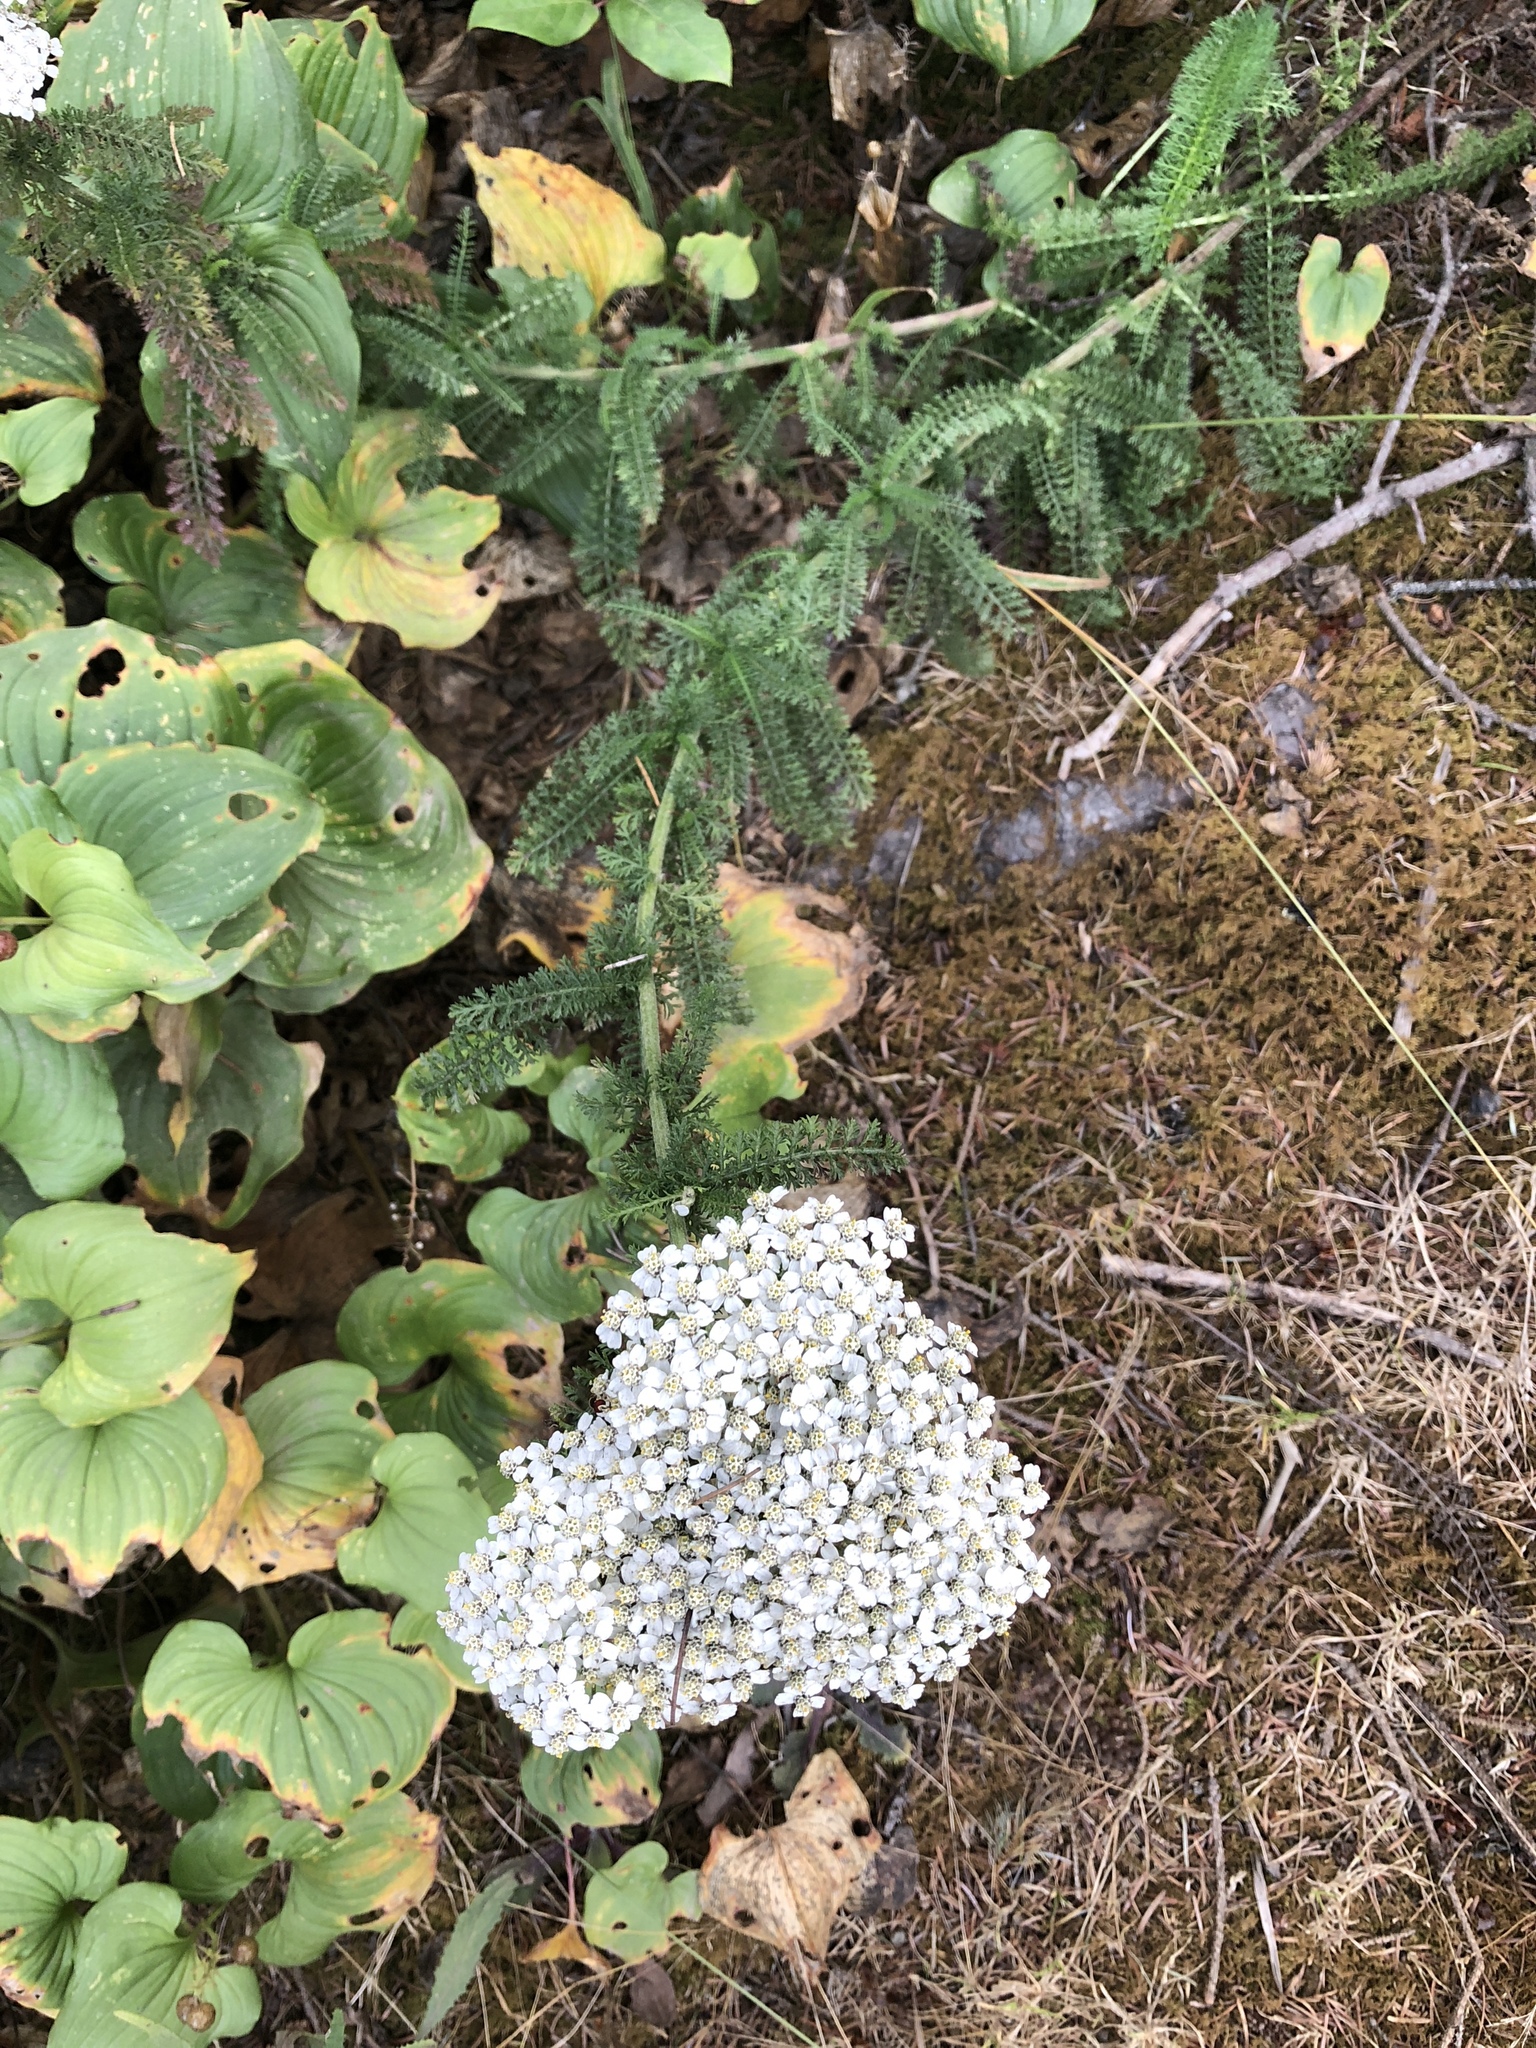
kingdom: Plantae
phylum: Tracheophyta
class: Magnoliopsida
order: Asterales
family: Asteraceae
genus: Achillea
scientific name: Achillea millefolium
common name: Yarrow
